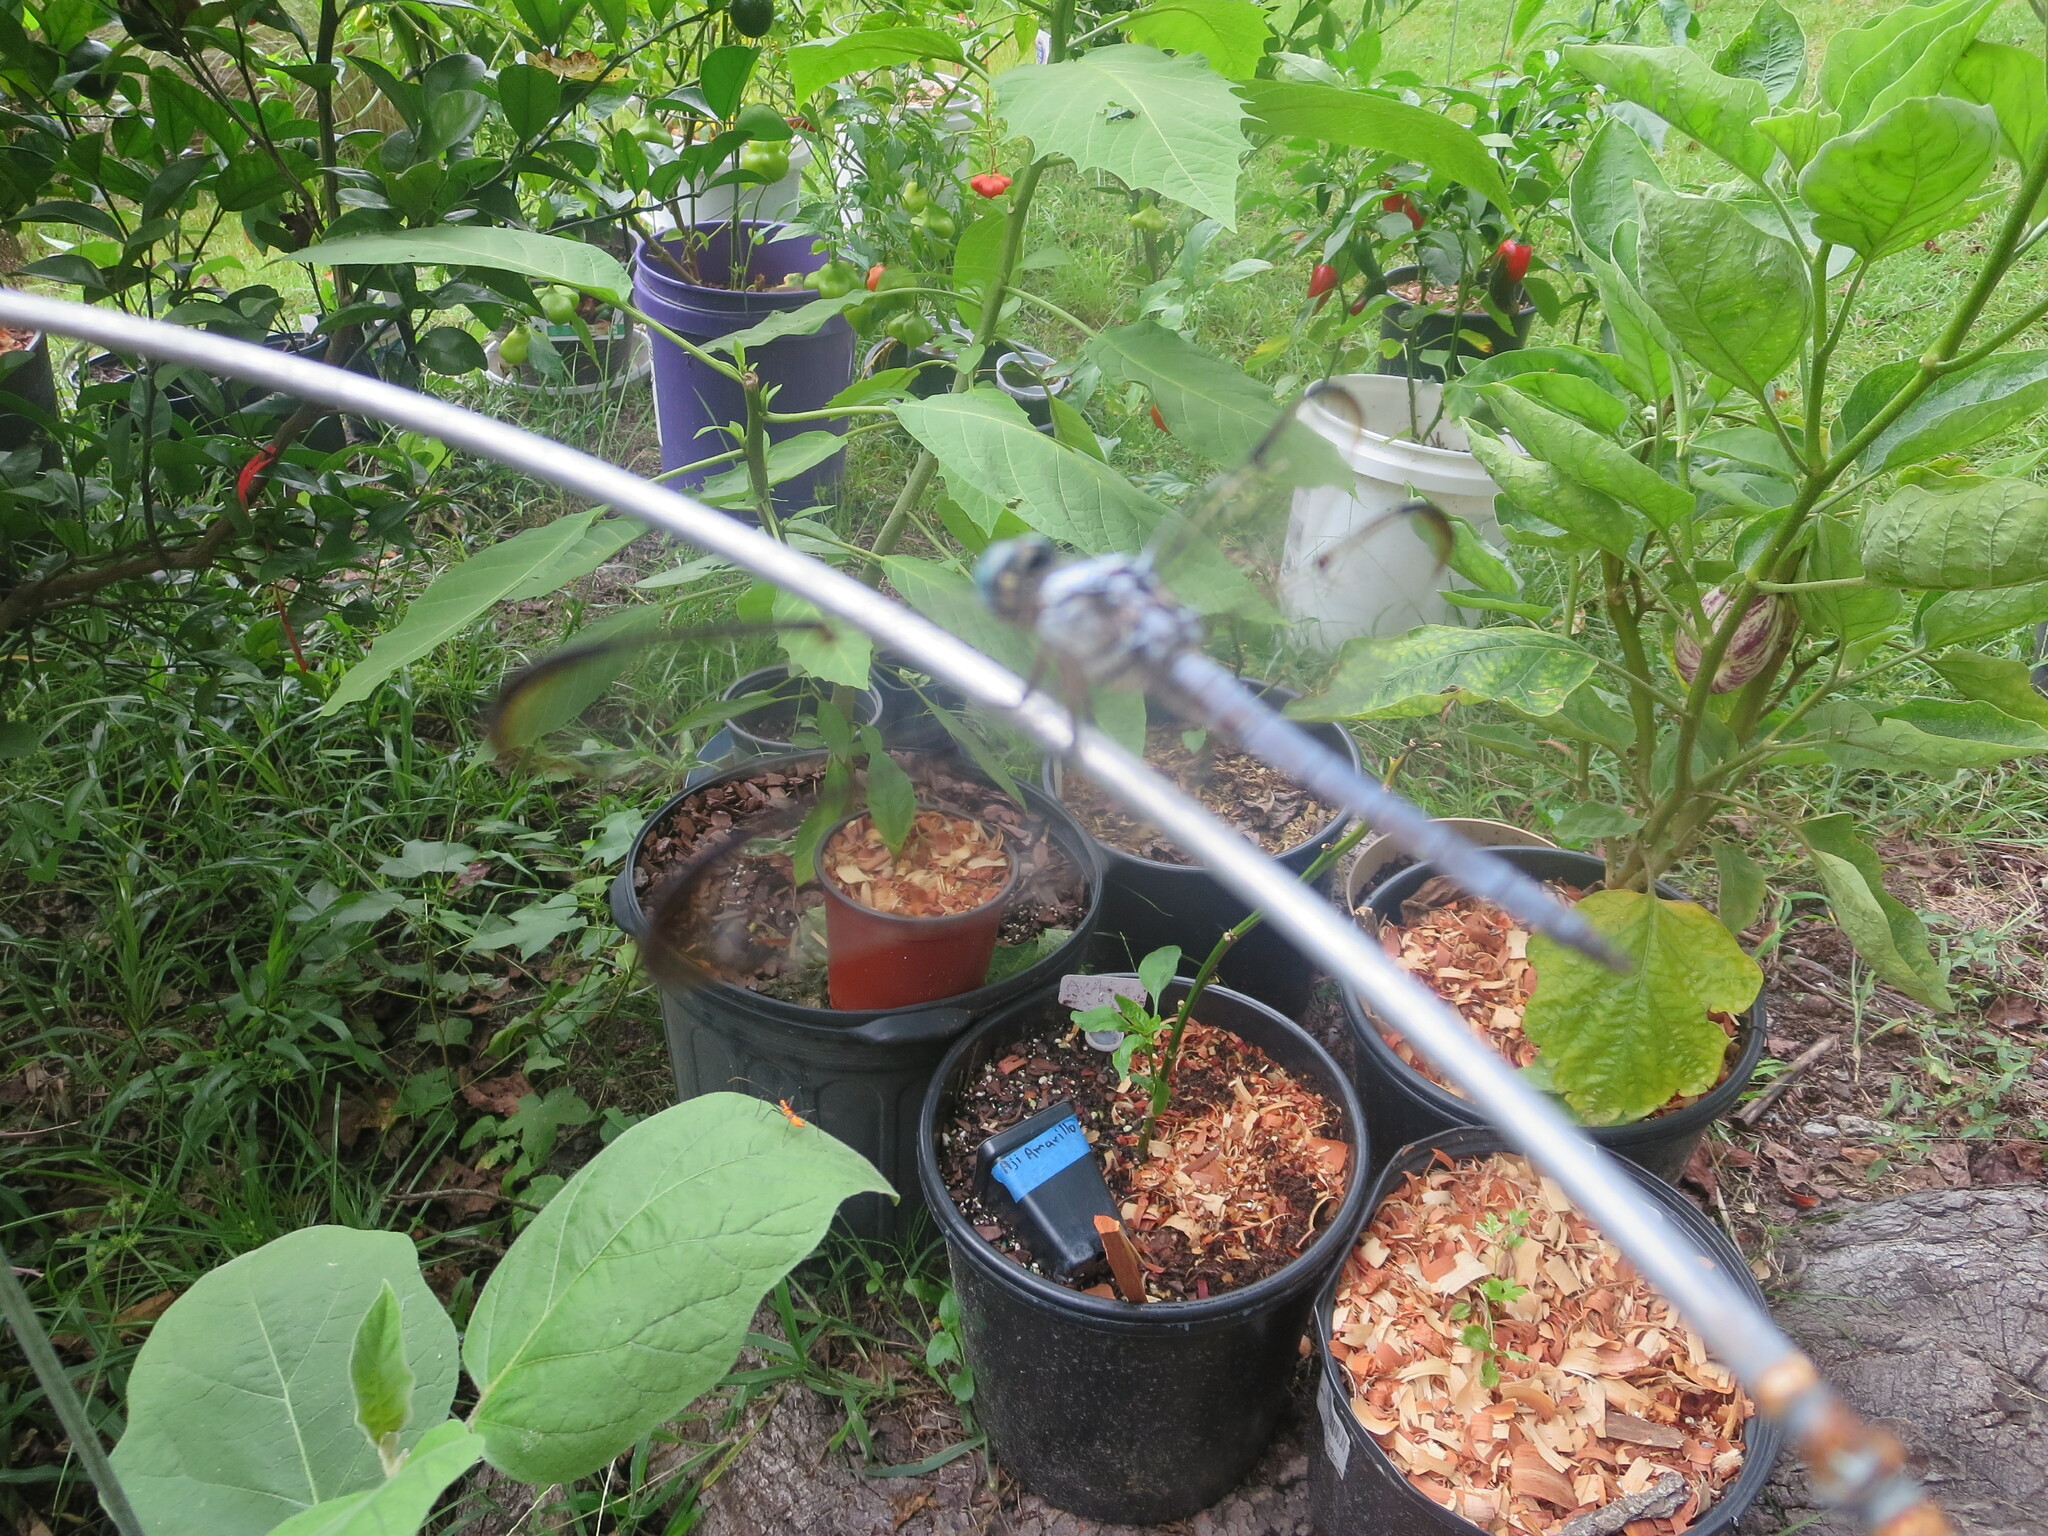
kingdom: Animalia
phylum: Arthropoda
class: Insecta
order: Odonata
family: Libellulidae
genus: Libellula
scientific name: Libellula vibrans
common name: Great blue skimmer
